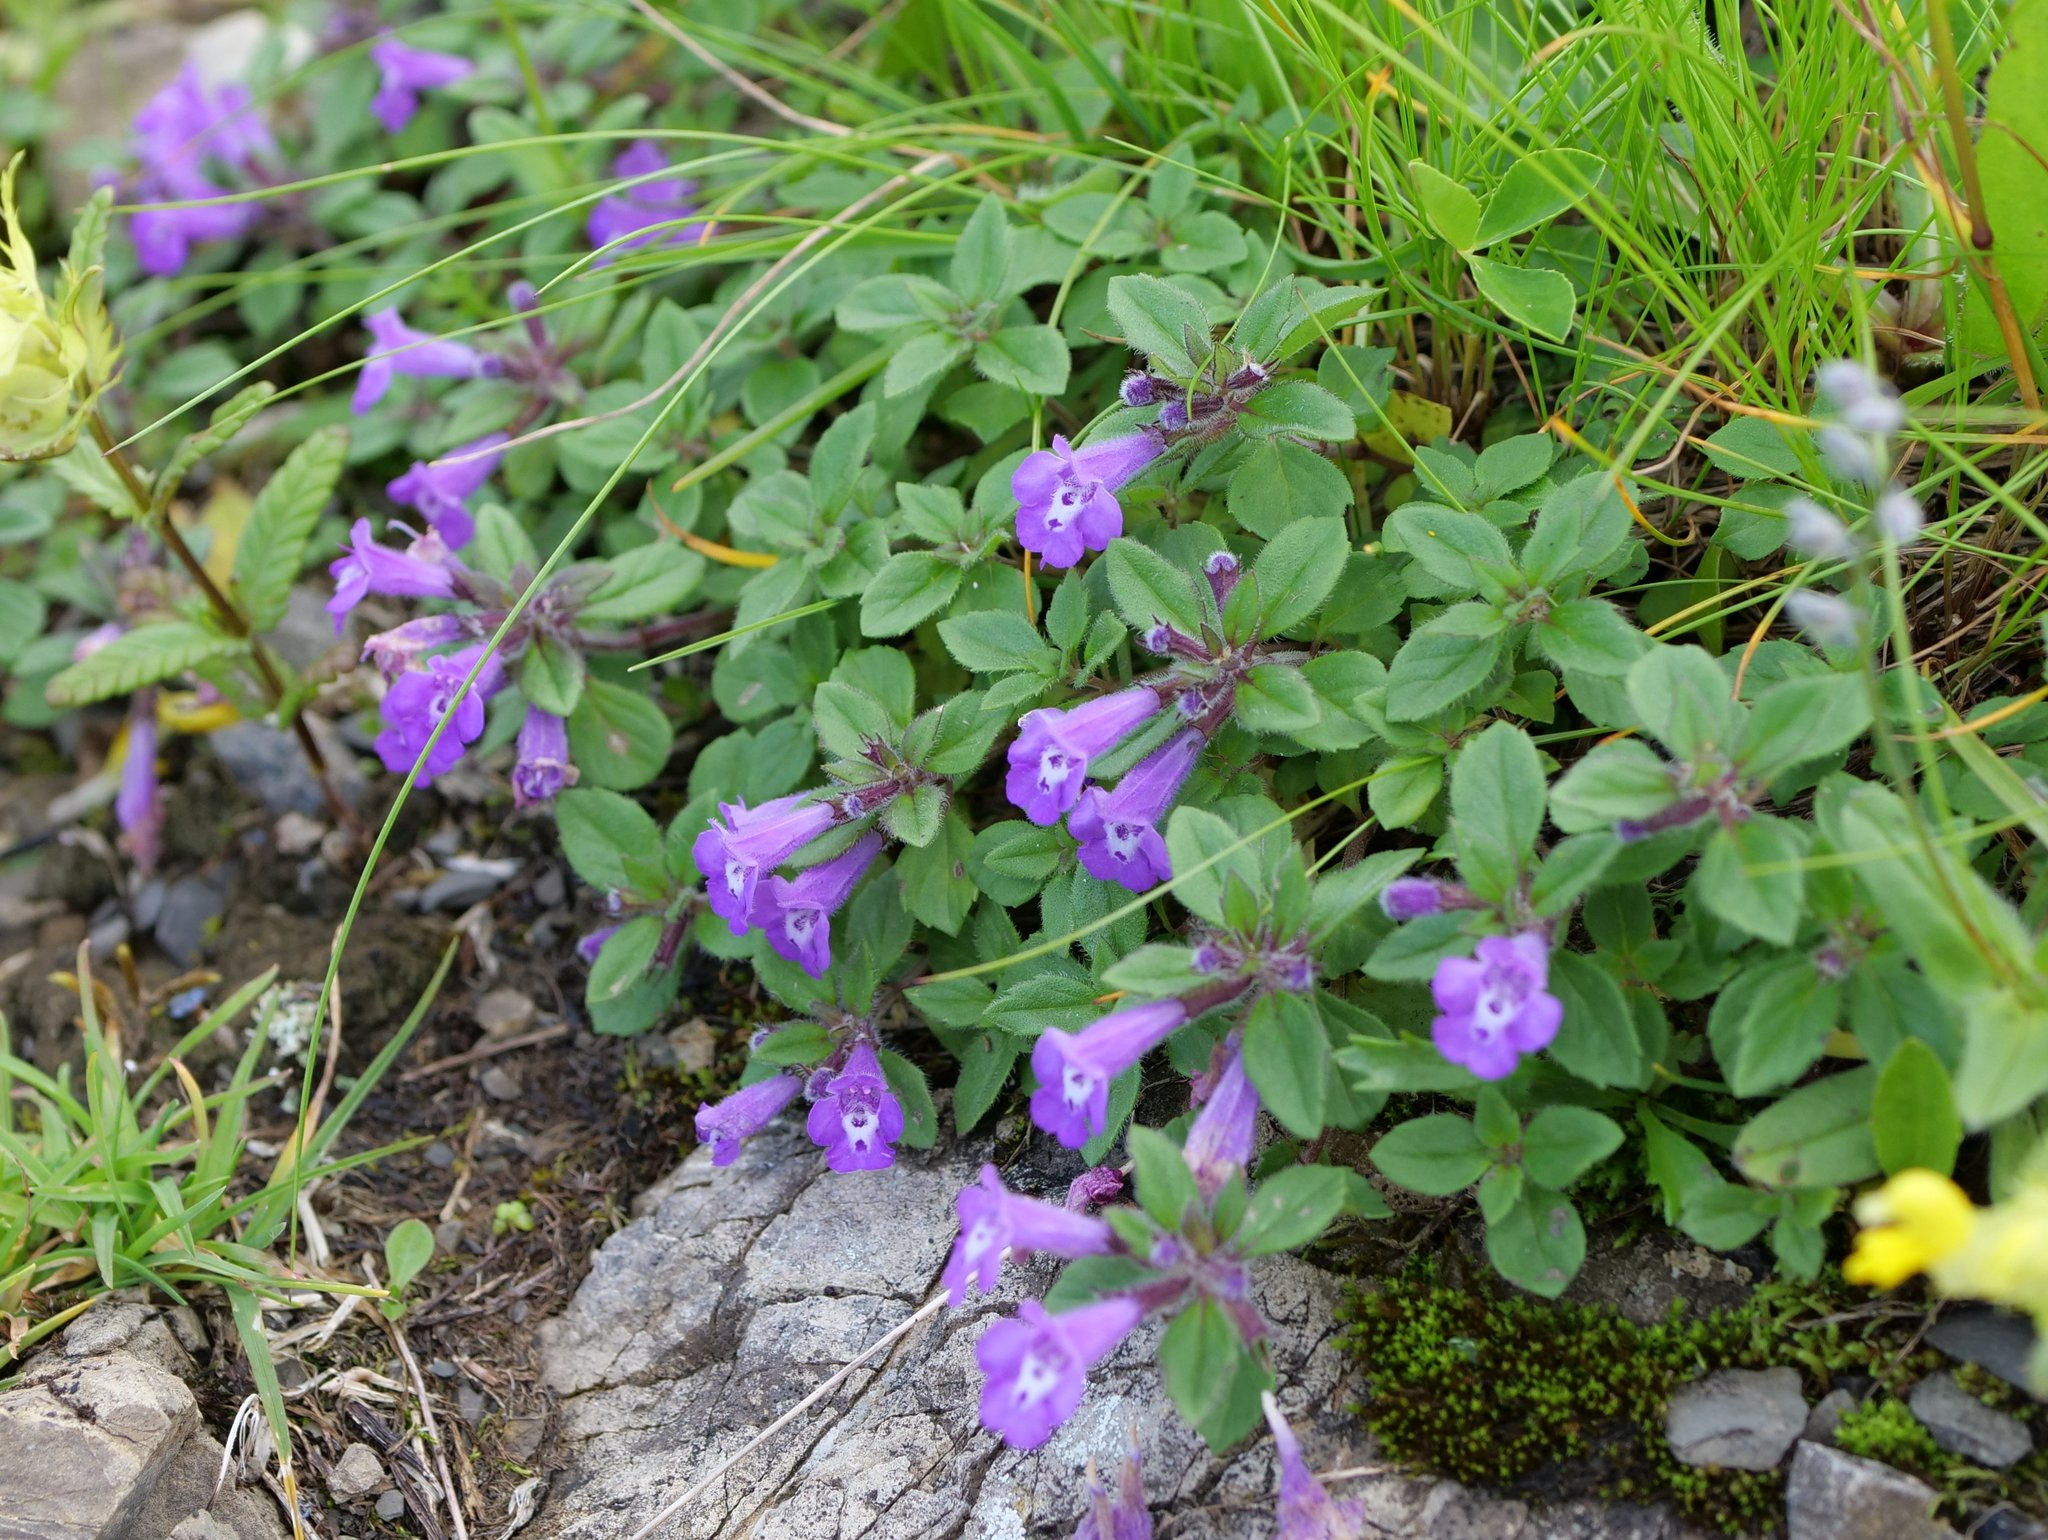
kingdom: Plantae
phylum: Tracheophyta
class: Magnoliopsida
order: Lamiales
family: Lamiaceae
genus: Clinopodium
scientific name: Clinopodium alpinum
